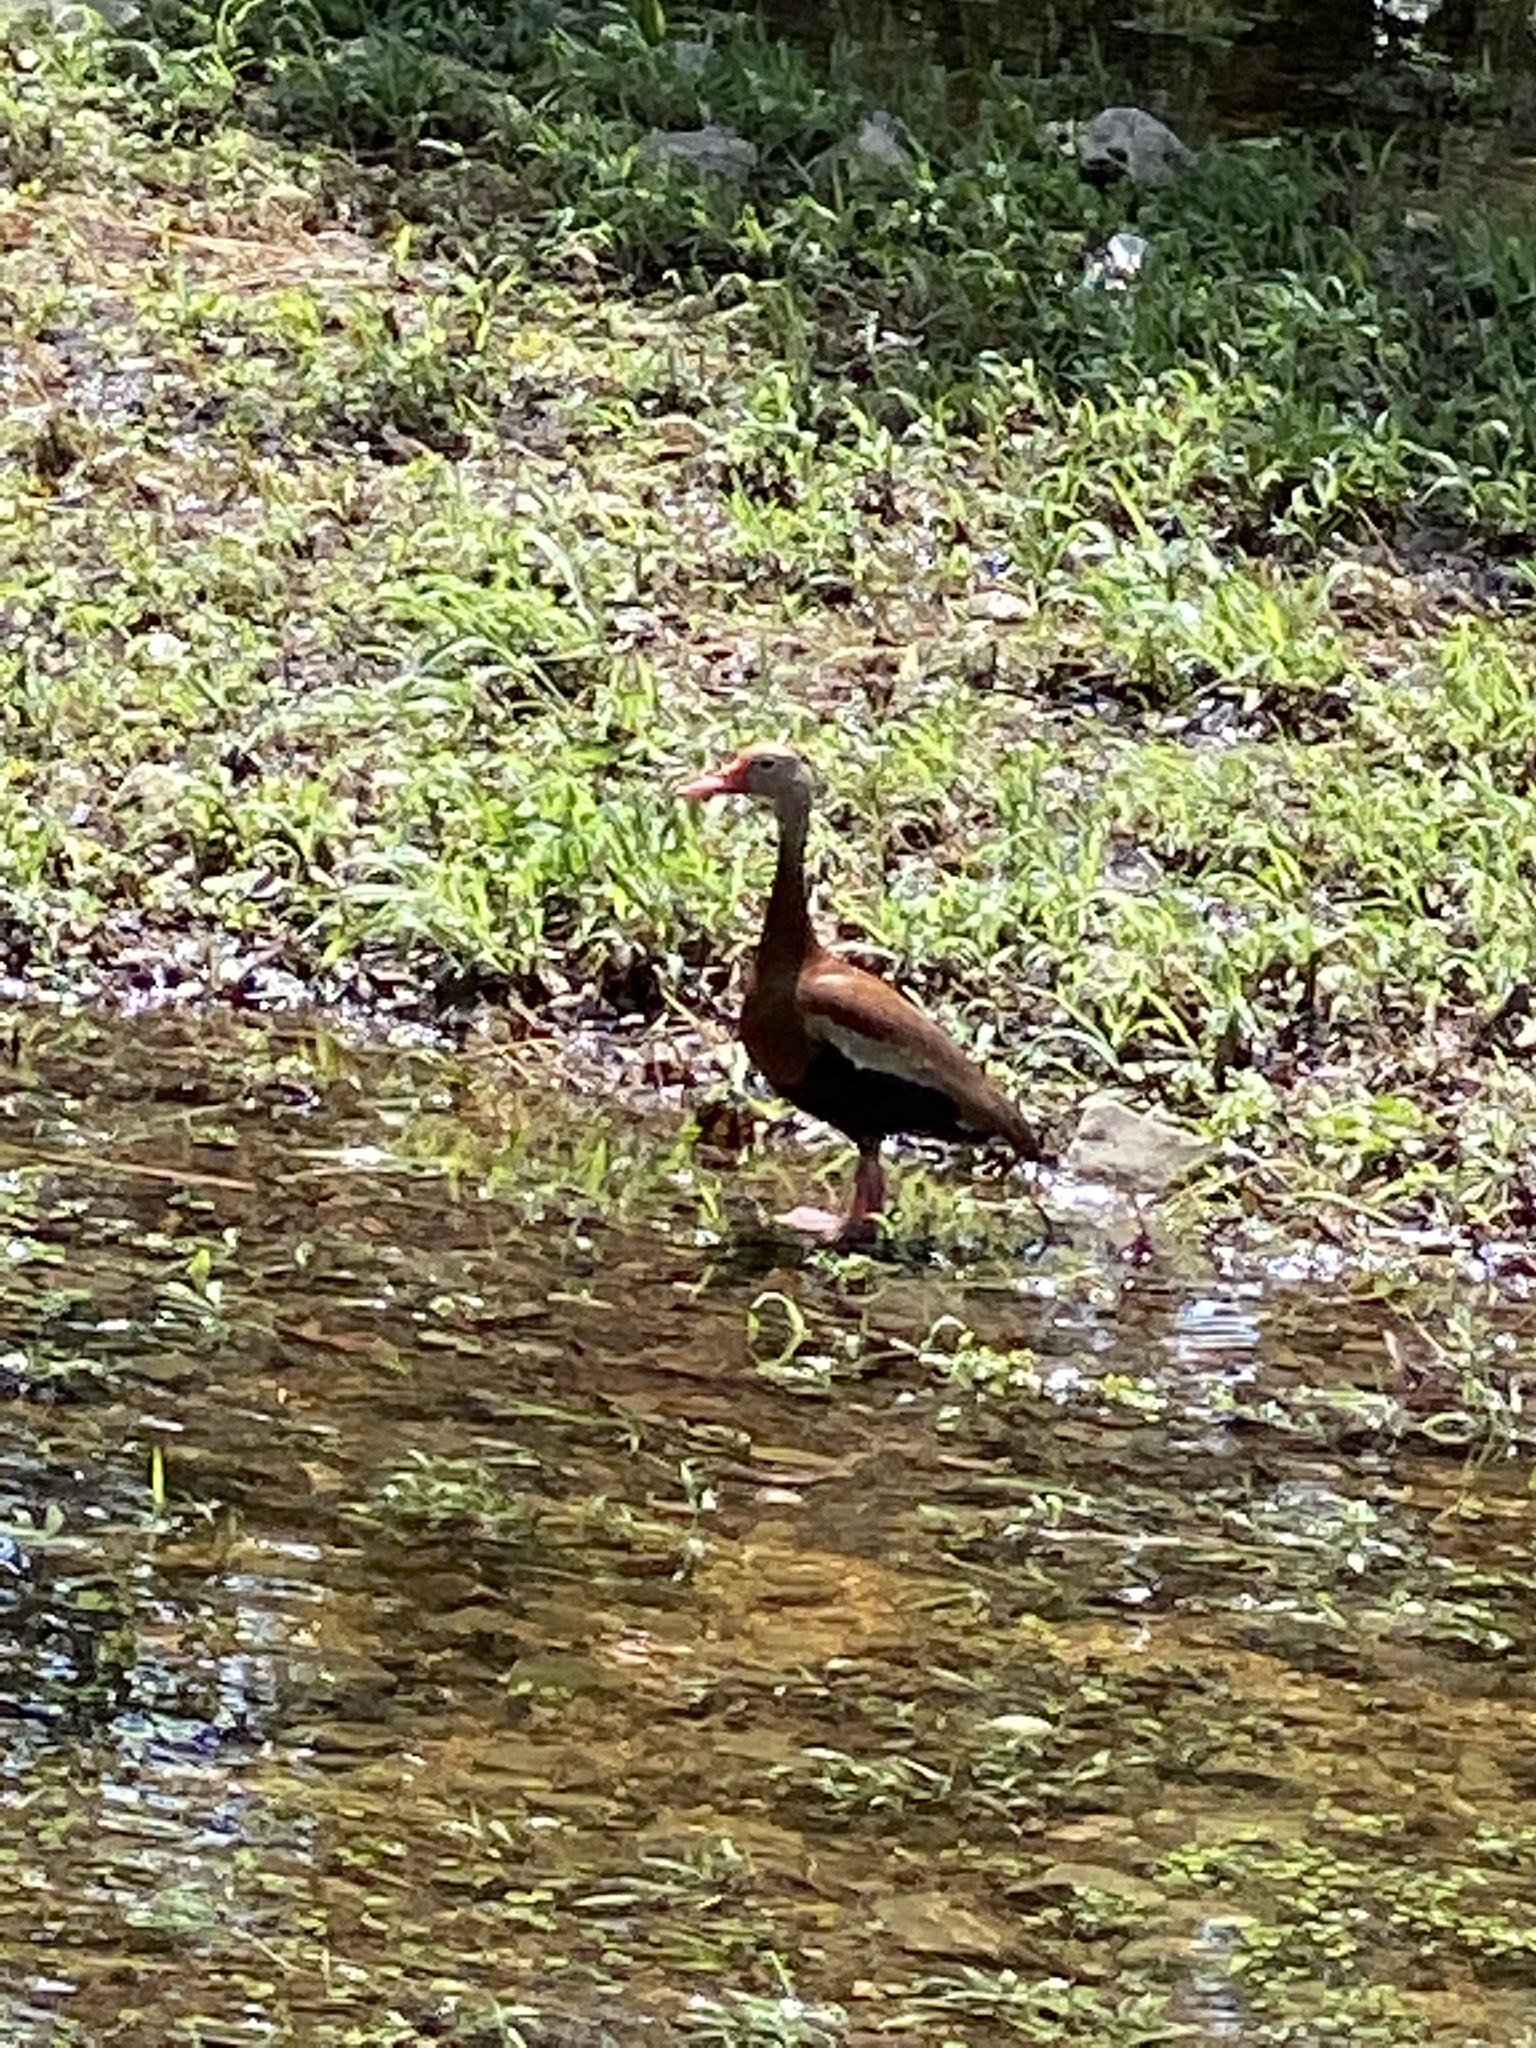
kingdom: Animalia
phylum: Chordata
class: Aves
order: Anseriformes
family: Anatidae
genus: Dendrocygna
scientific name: Dendrocygna autumnalis
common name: Black-bellied whistling duck
